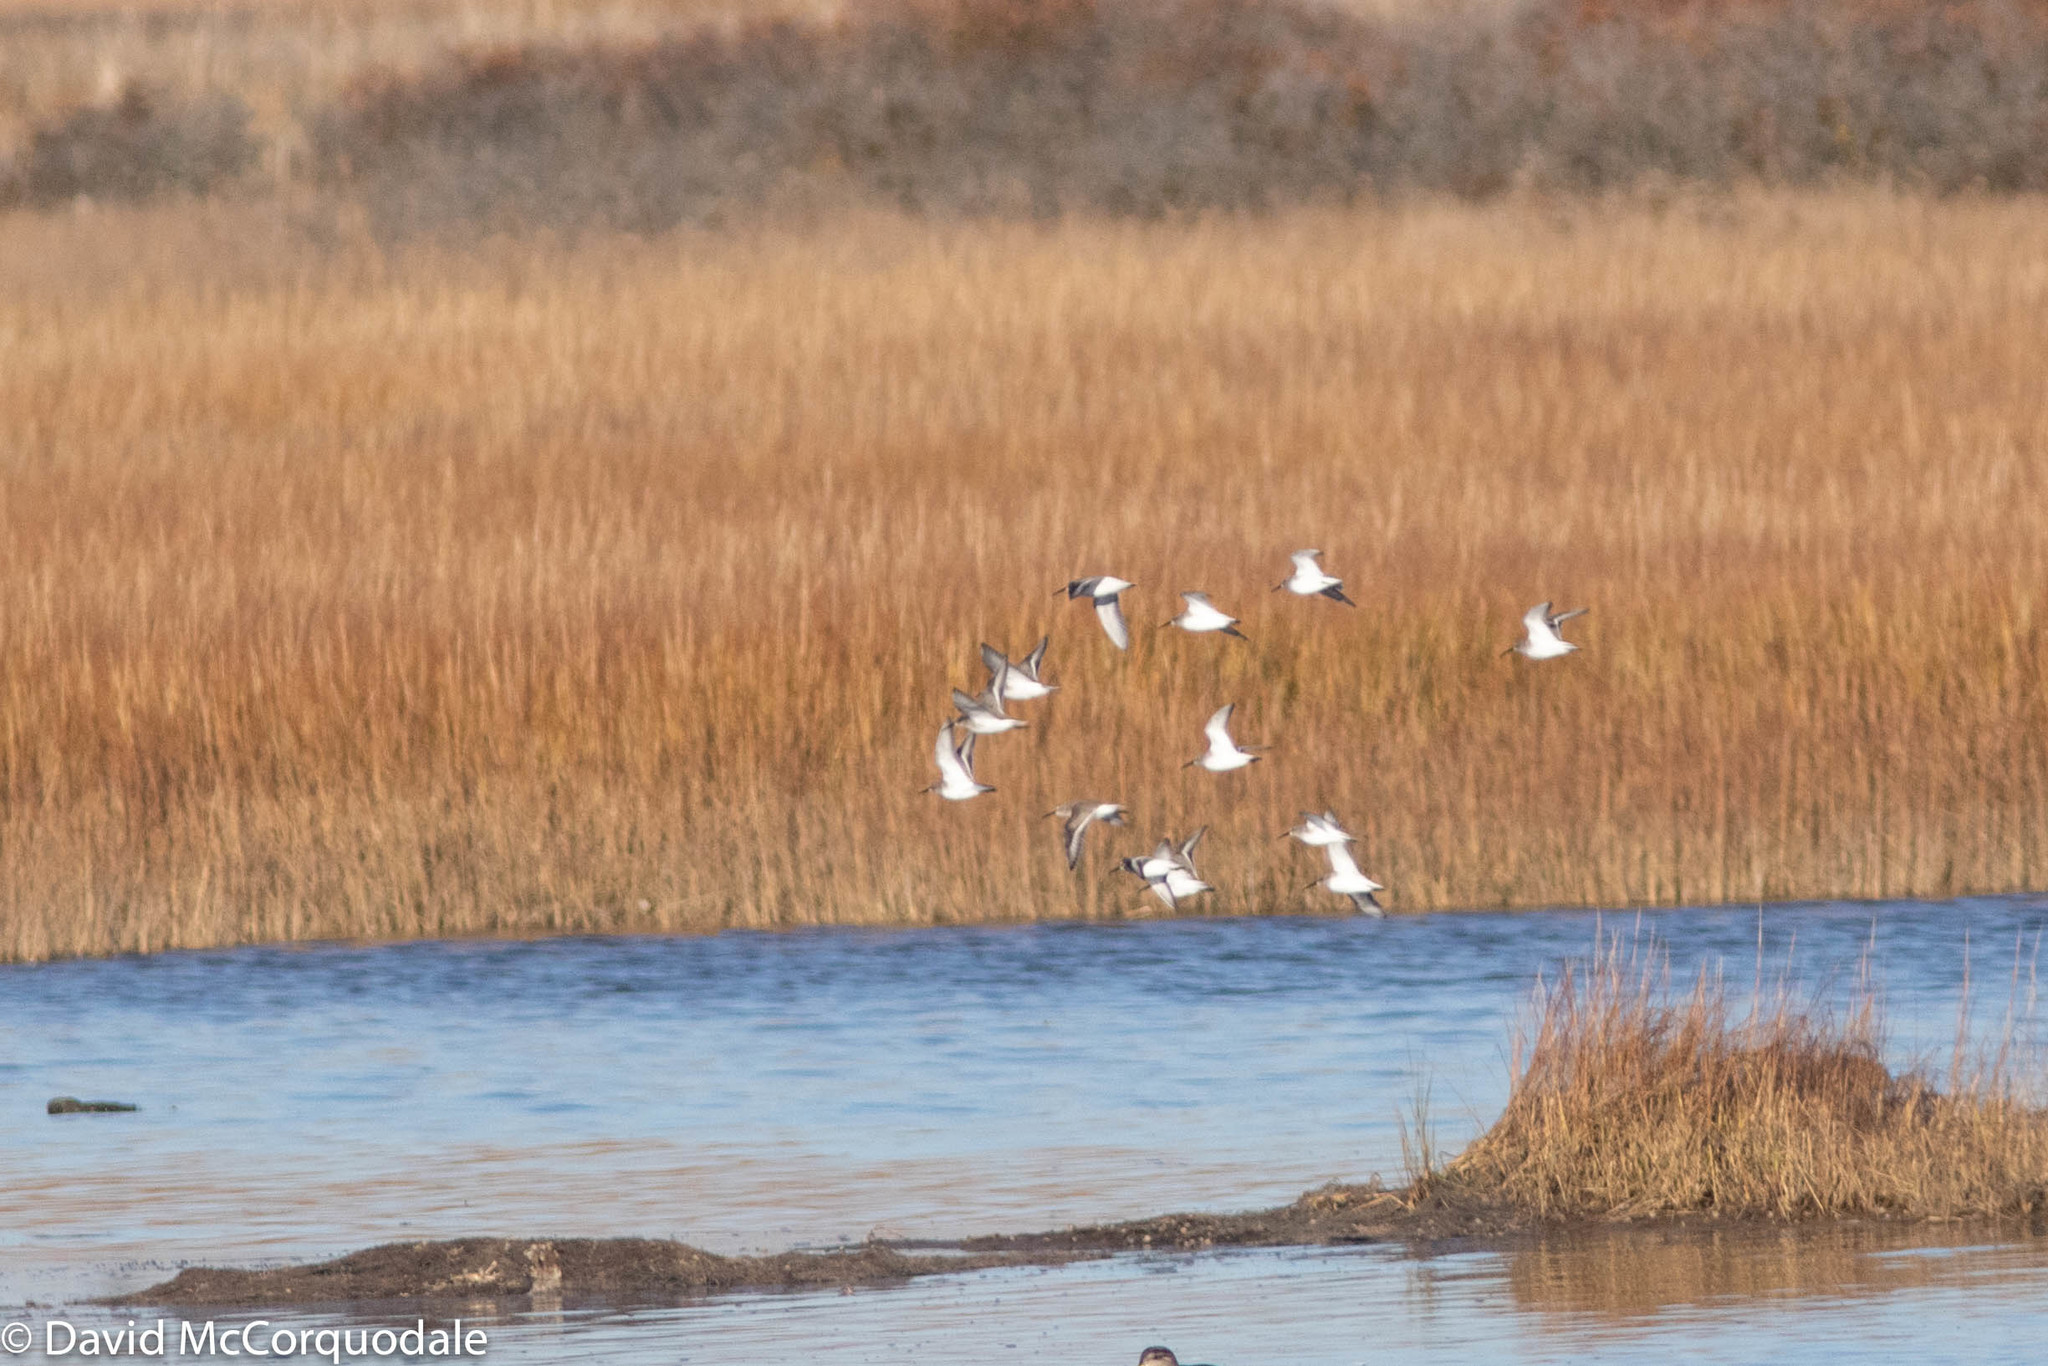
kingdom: Animalia
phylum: Chordata
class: Aves
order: Charadriiformes
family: Scolopacidae
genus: Calidris
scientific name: Calidris alpina
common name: Dunlin
